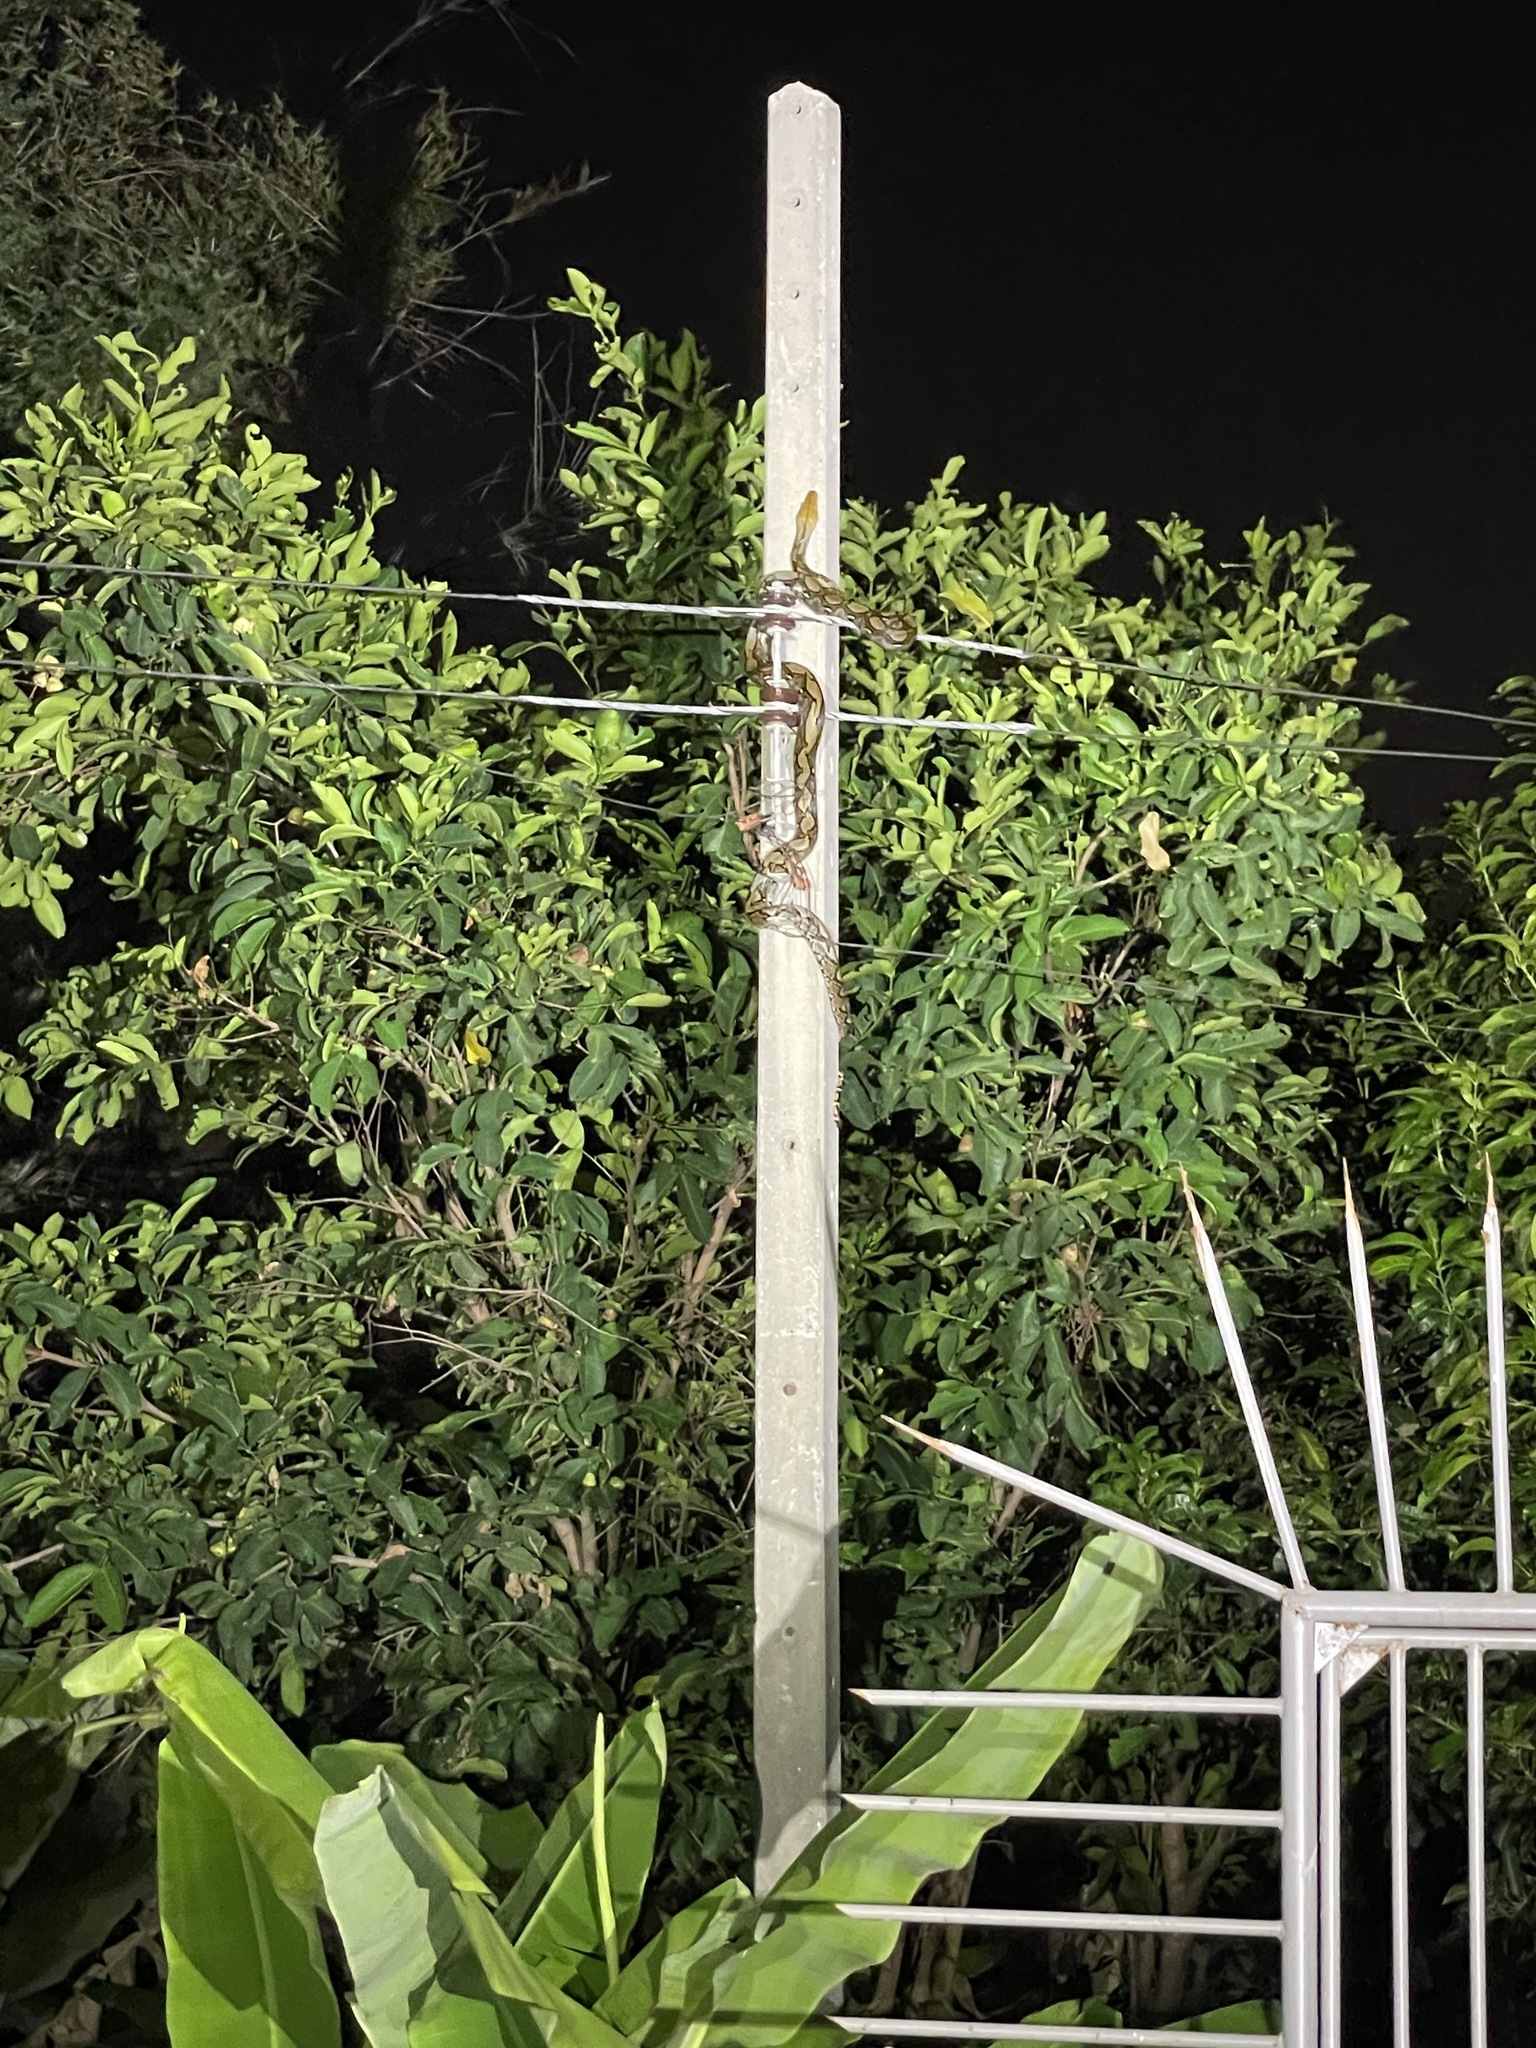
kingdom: Animalia
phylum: Chordata
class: Squamata
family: Pythonidae
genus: Malayopython
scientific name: Malayopython reticulatus
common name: Reticulated python
